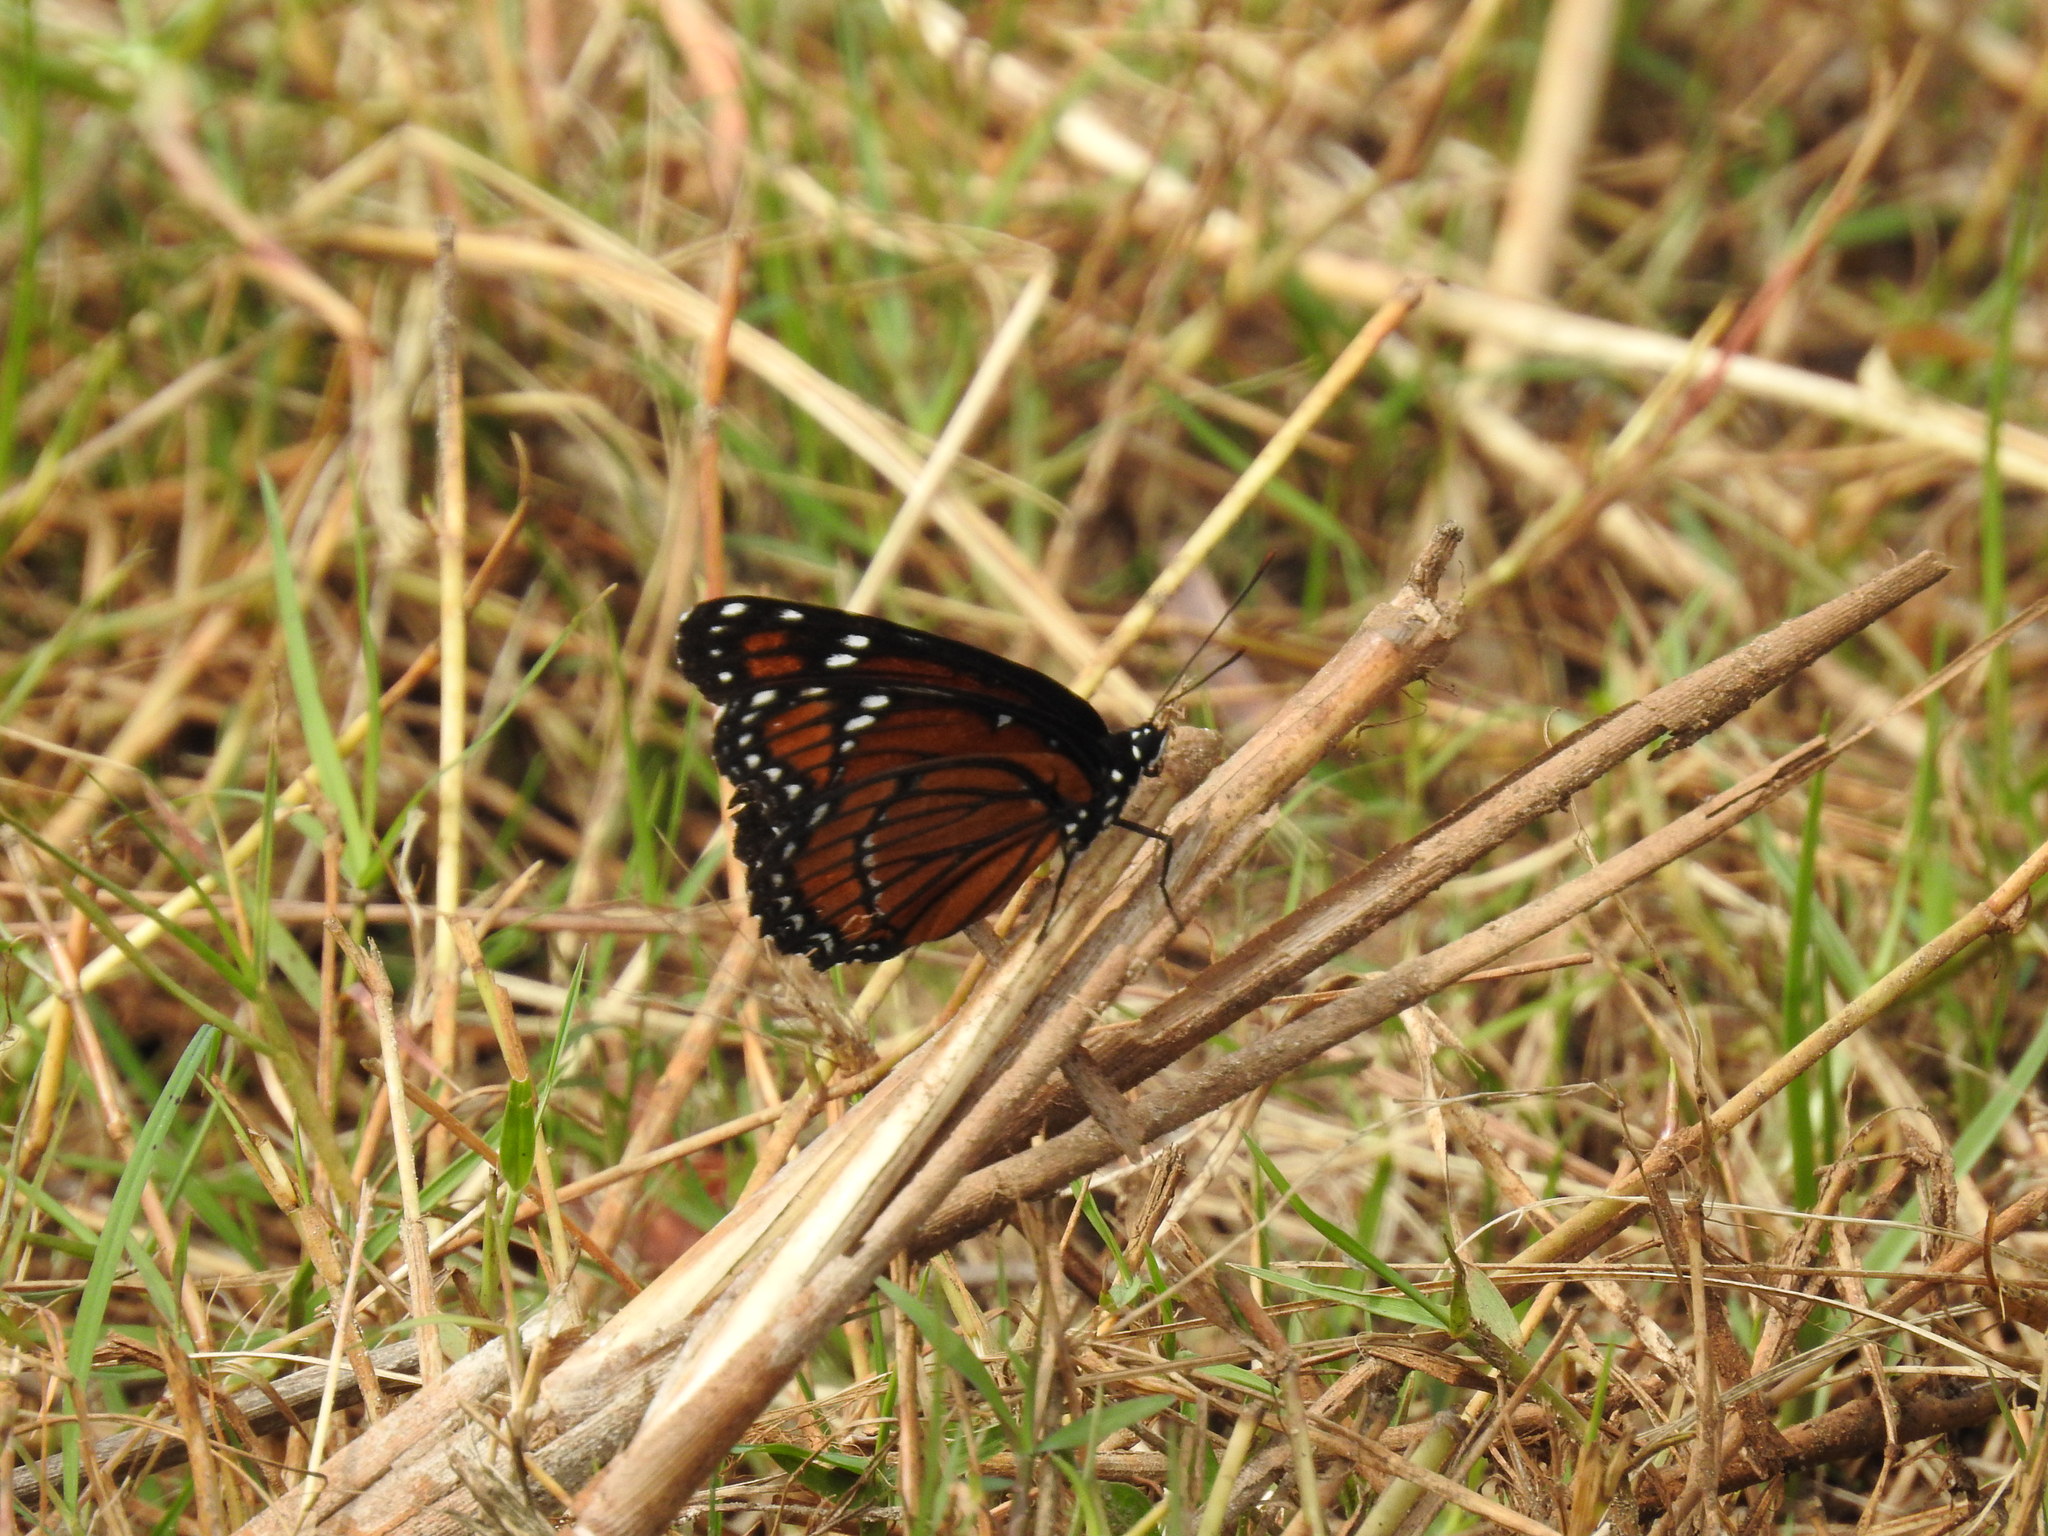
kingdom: Animalia
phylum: Arthropoda
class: Insecta
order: Lepidoptera
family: Nymphalidae
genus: Limenitis
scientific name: Limenitis archippus
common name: Viceroy
